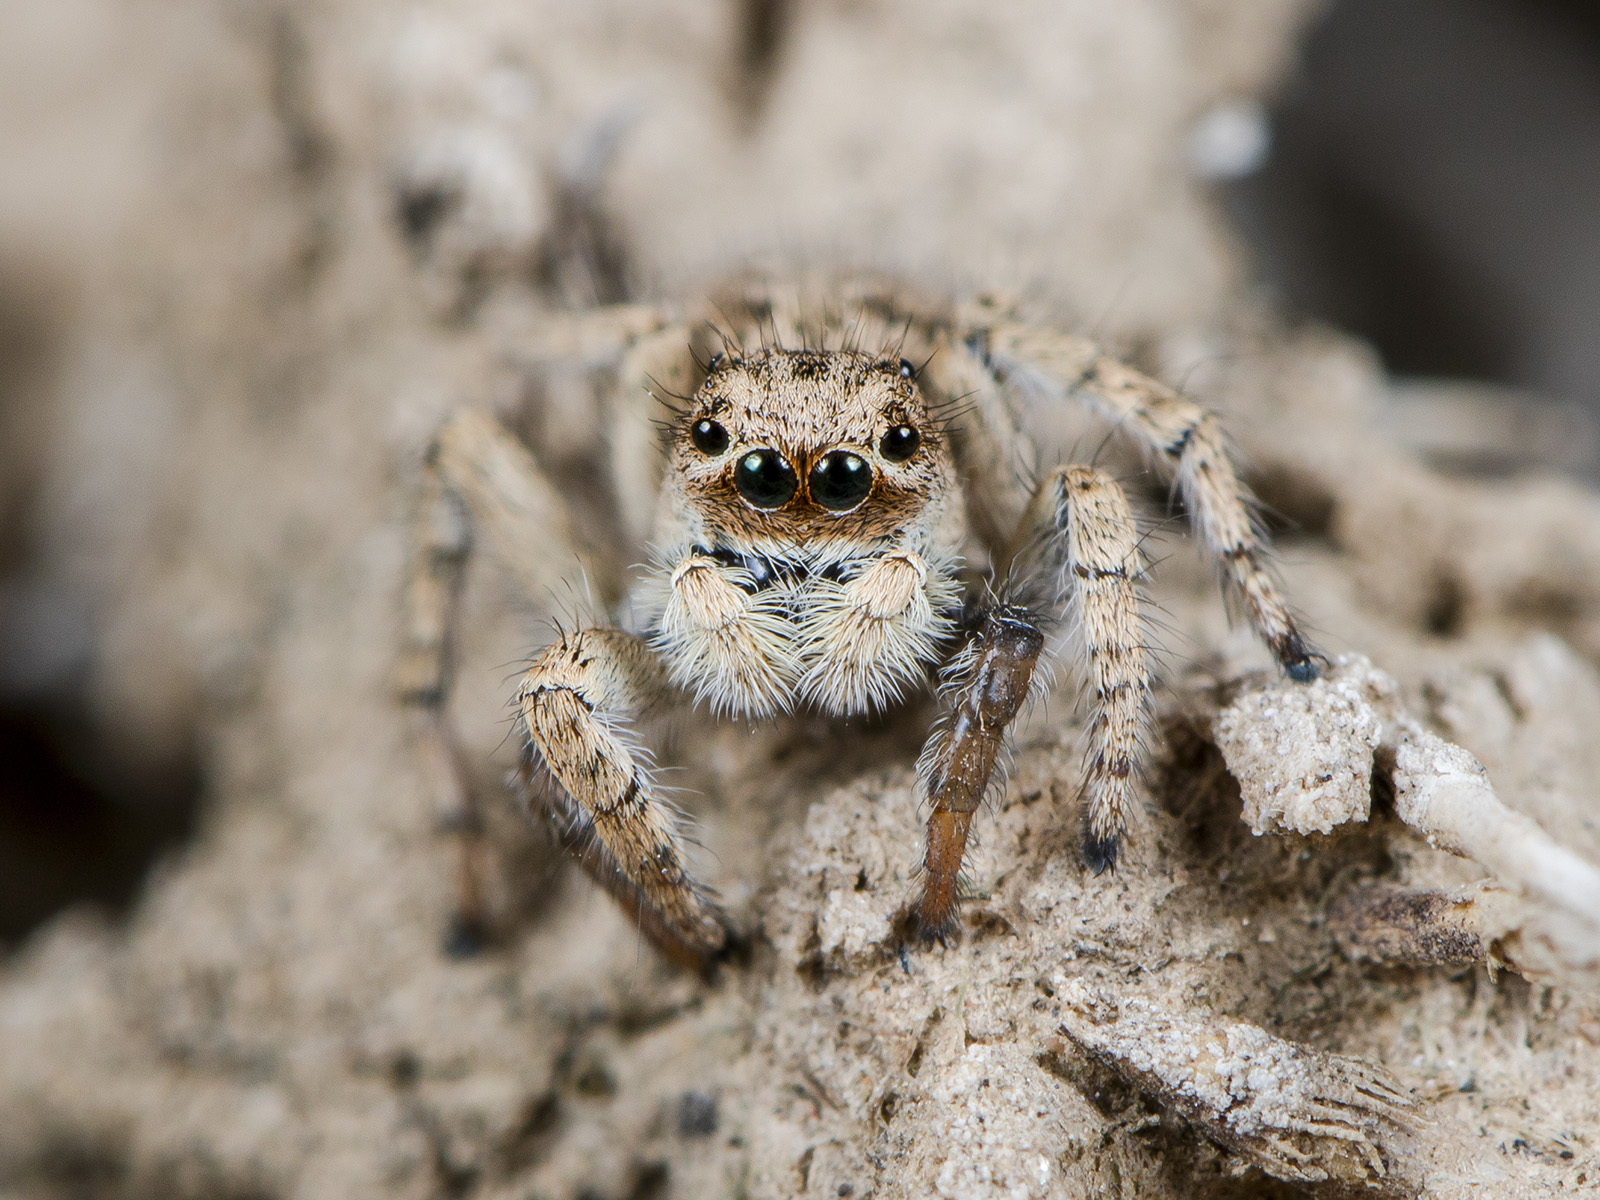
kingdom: Animalia
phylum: Arthropoda
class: Arachnida
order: Araneae
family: Salticidae
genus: Aelurillus
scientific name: Aelurillus concolor
